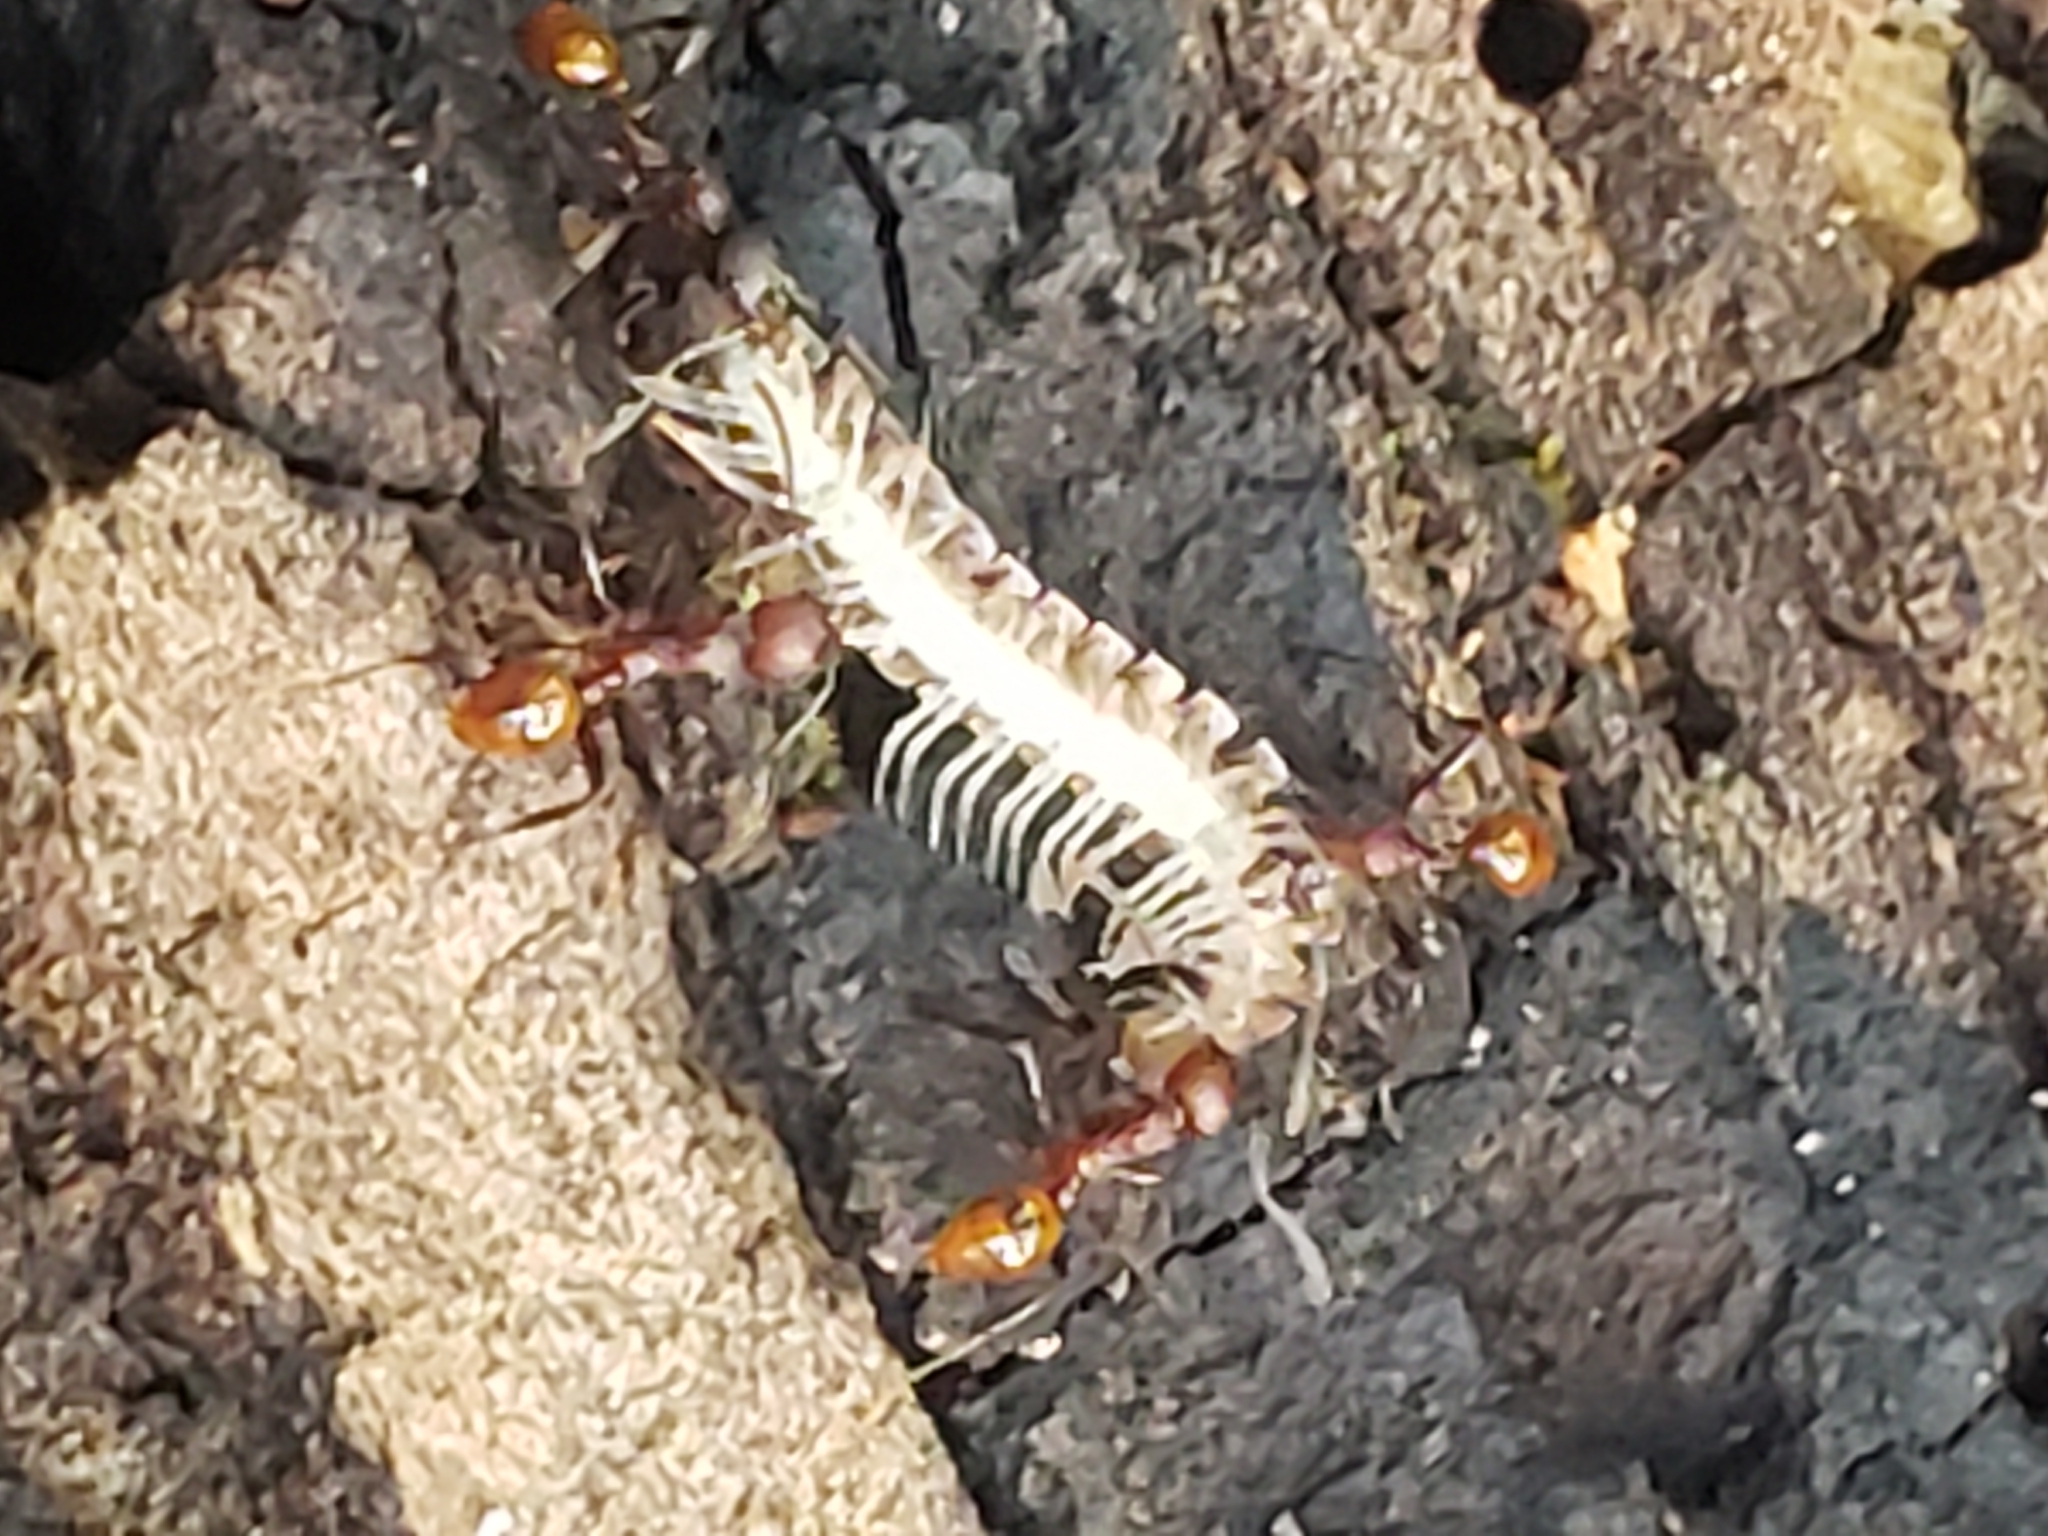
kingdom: Animalia
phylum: Arthropoda
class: Insecta
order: Hymenoptera
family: Formicidae
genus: Aphaenogaster
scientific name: Aphaenogaster tennesseensis
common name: Tennessee thread-waisted ant
